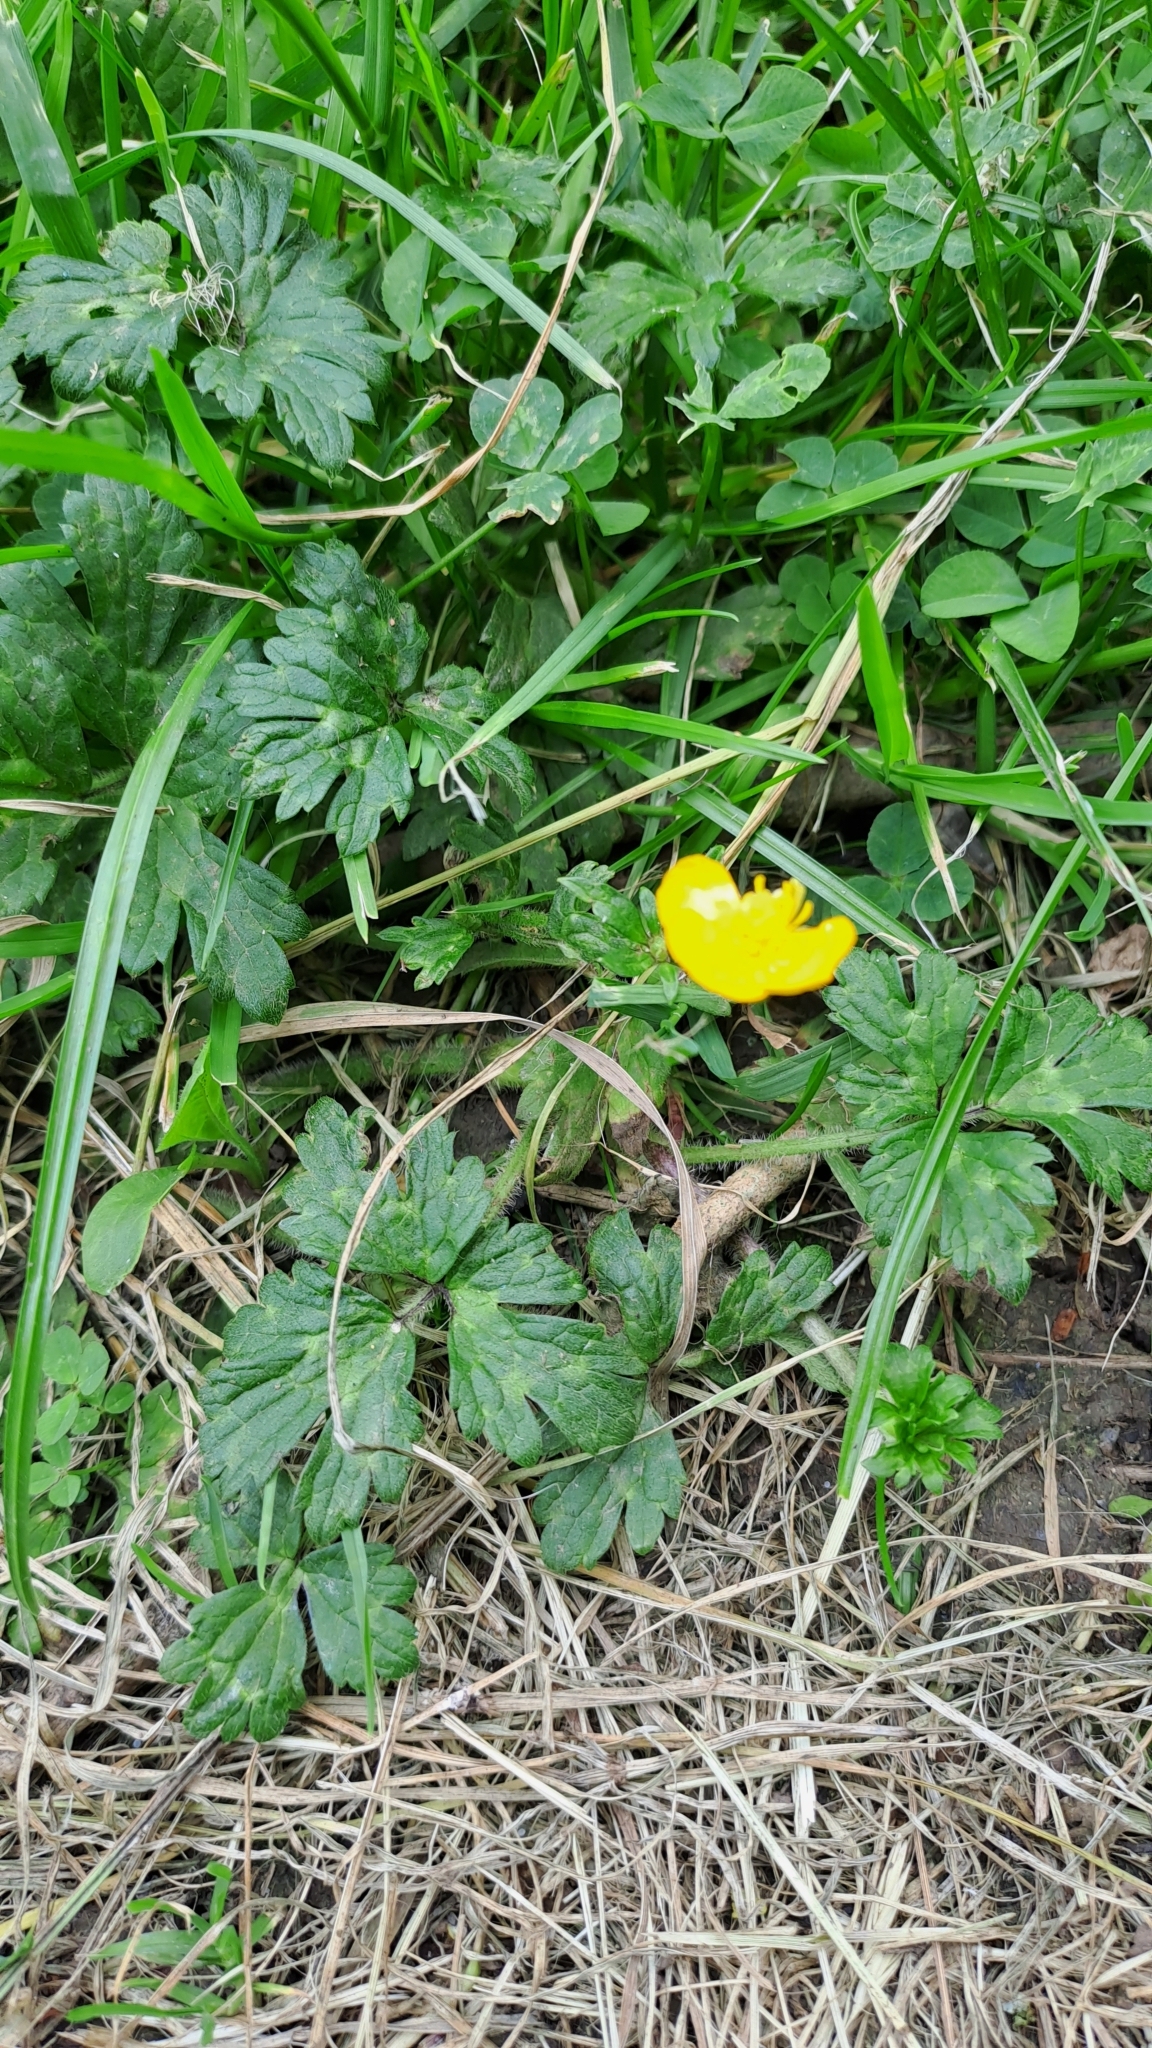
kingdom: Plantae
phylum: Tracheophyta
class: Magnoliopsida
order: Ranunculales
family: Ranunculaceae
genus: Ranunculus
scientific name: Ranunculus repens
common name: Creeping buttercup
